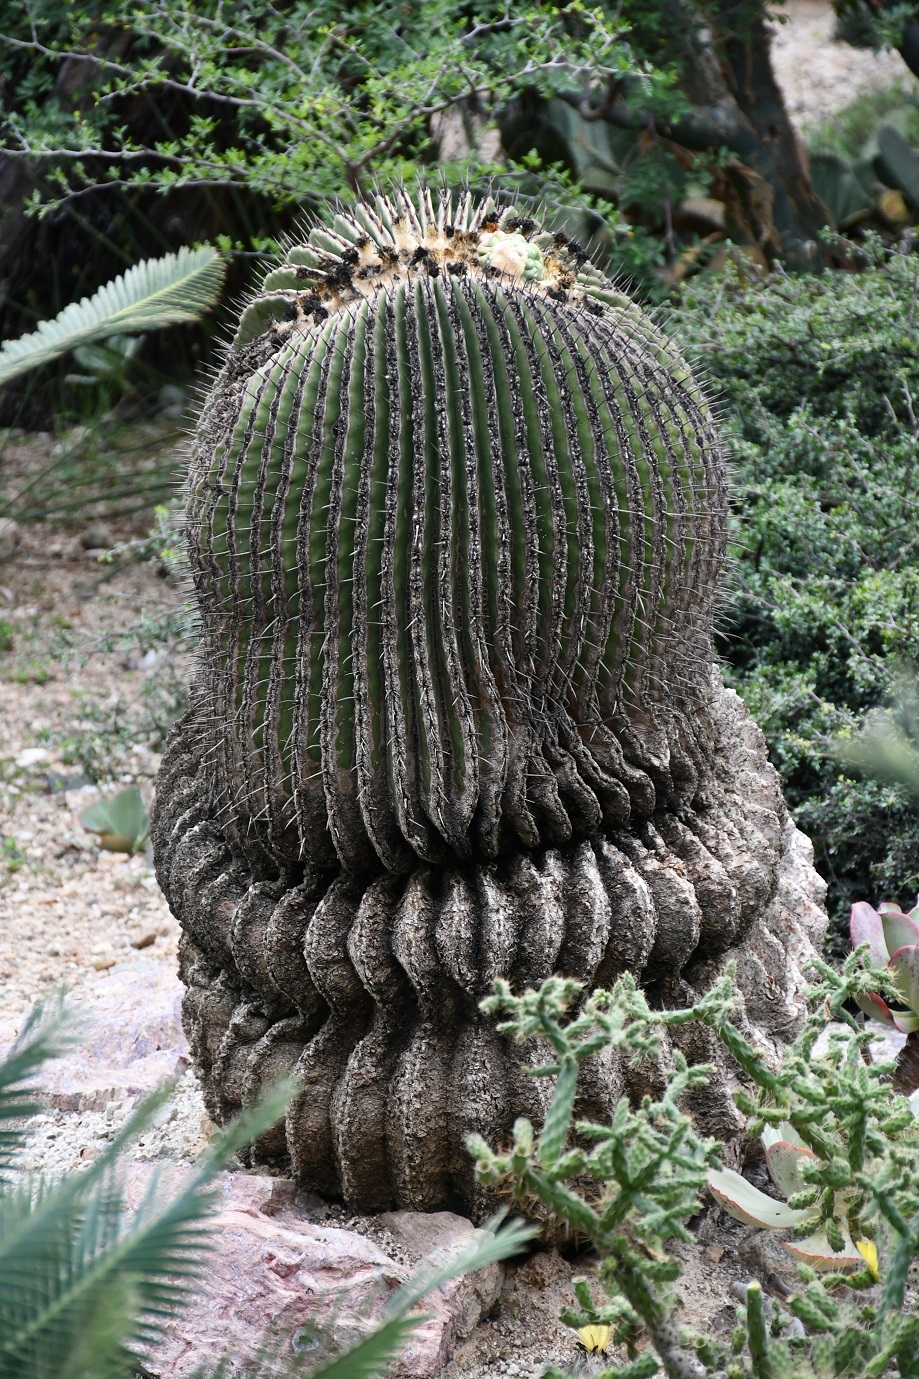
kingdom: Plantae
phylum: Tracheophyta
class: Magnoliopsida
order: Caryophyllales
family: Cactaceae
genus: Echinocactus
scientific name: Echinocactus platyacanthus
